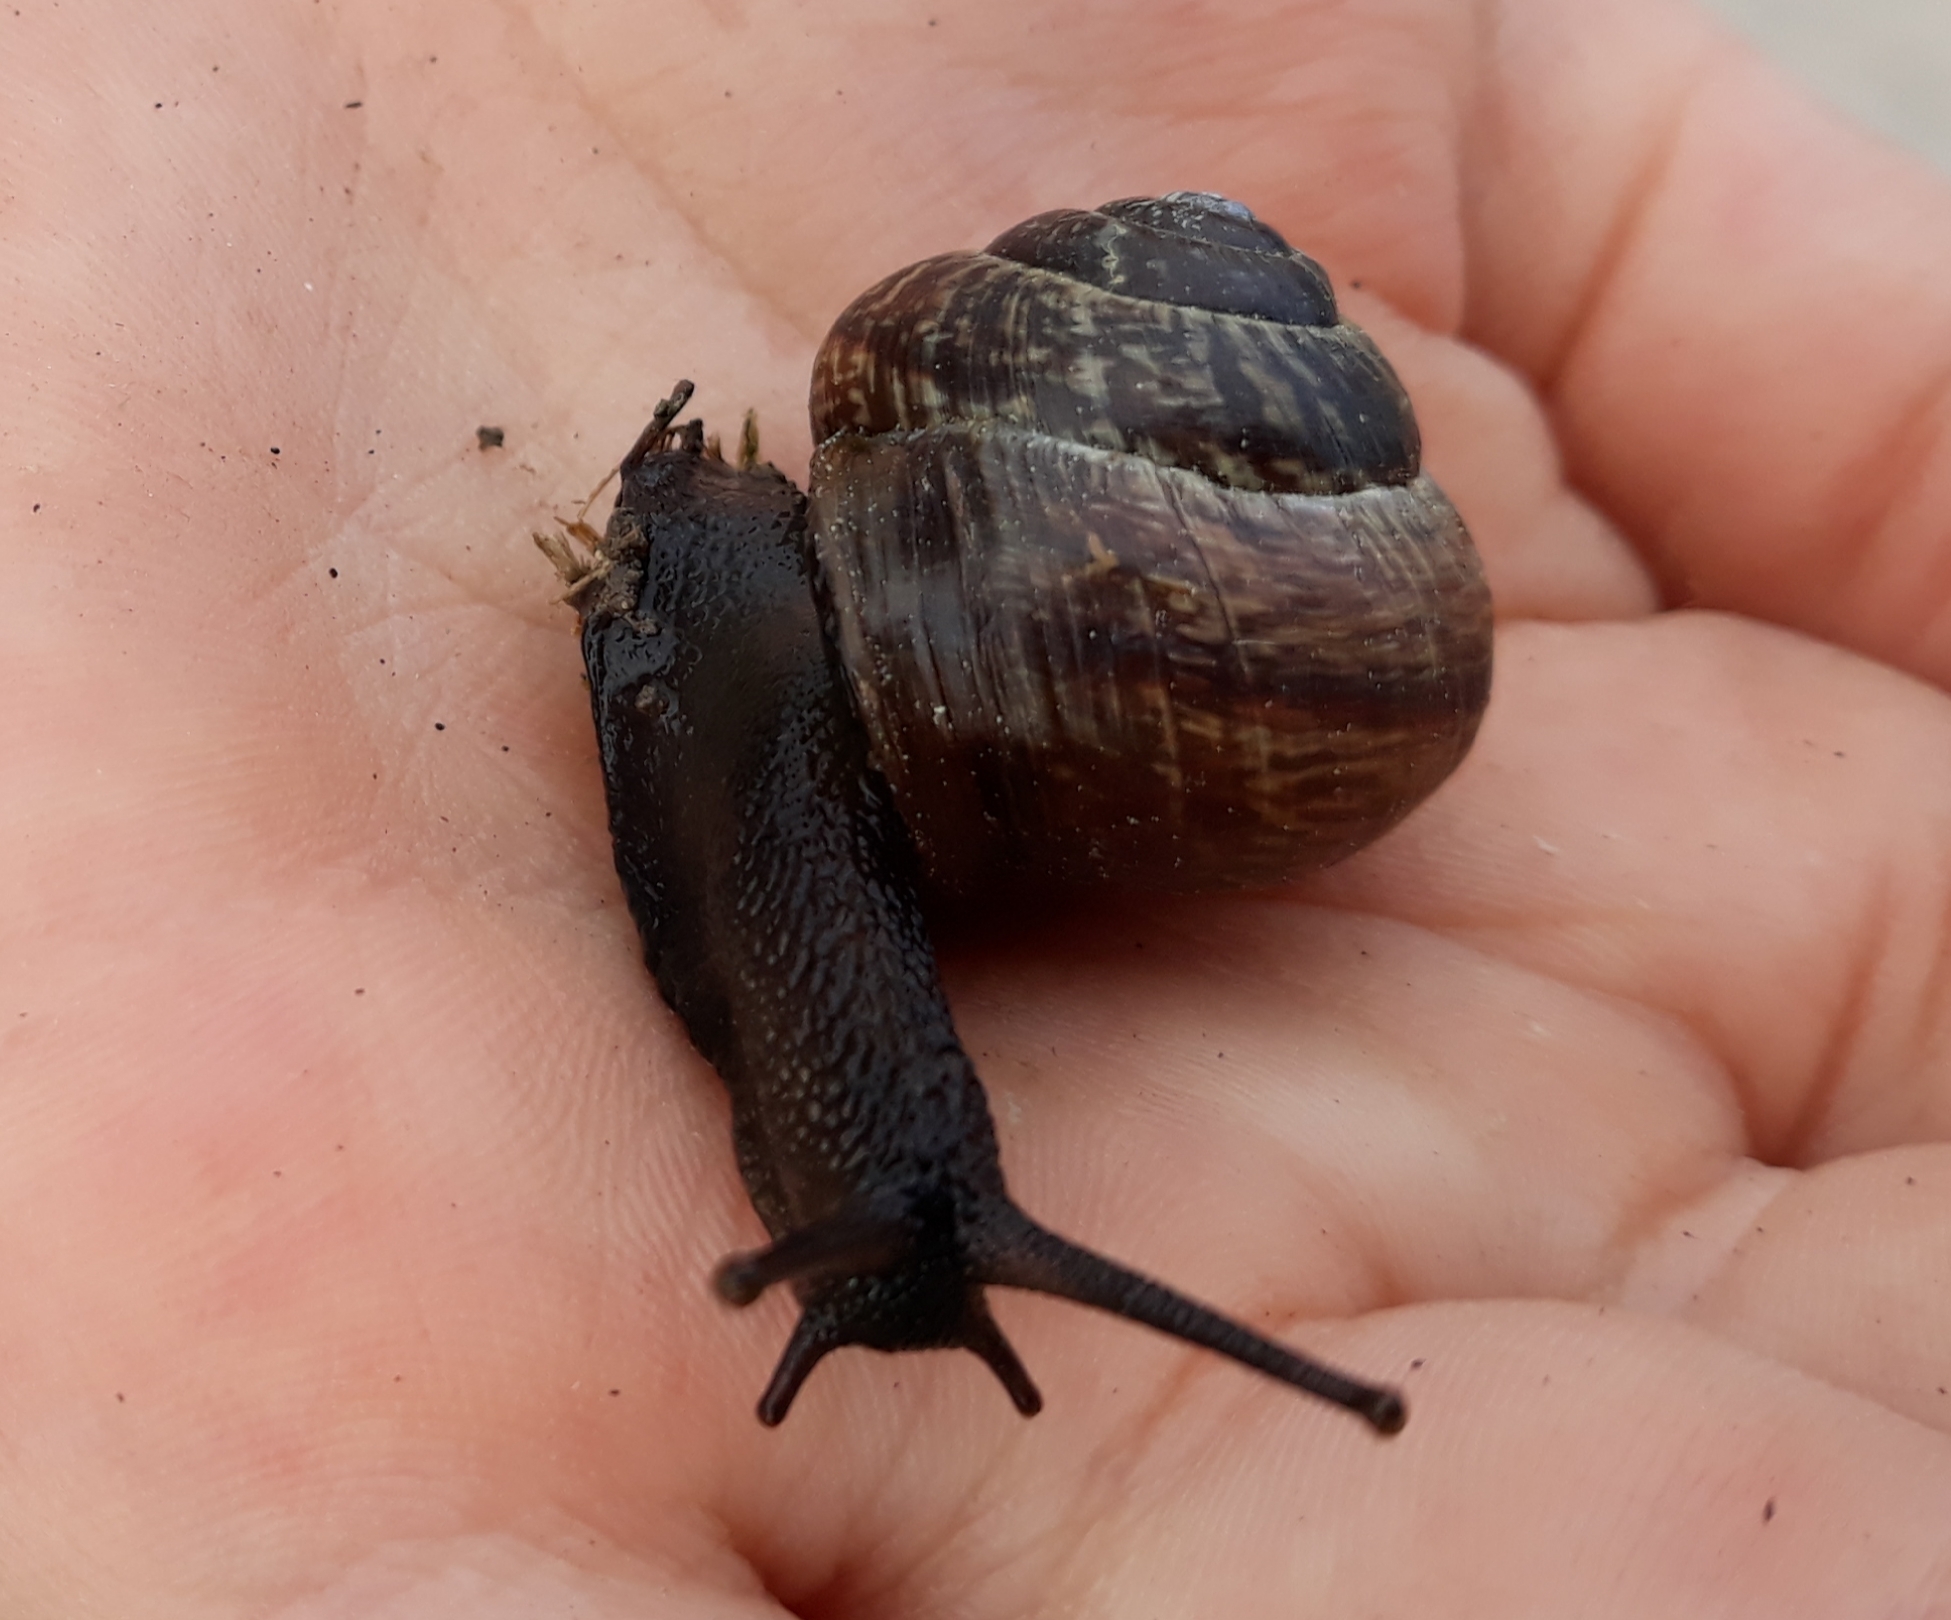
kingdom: Animalia
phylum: Mollusca
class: Gastropoda
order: Stylommatophora
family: Helicidae
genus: Arianta
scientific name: Arianta arbustorum
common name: Copse snail
